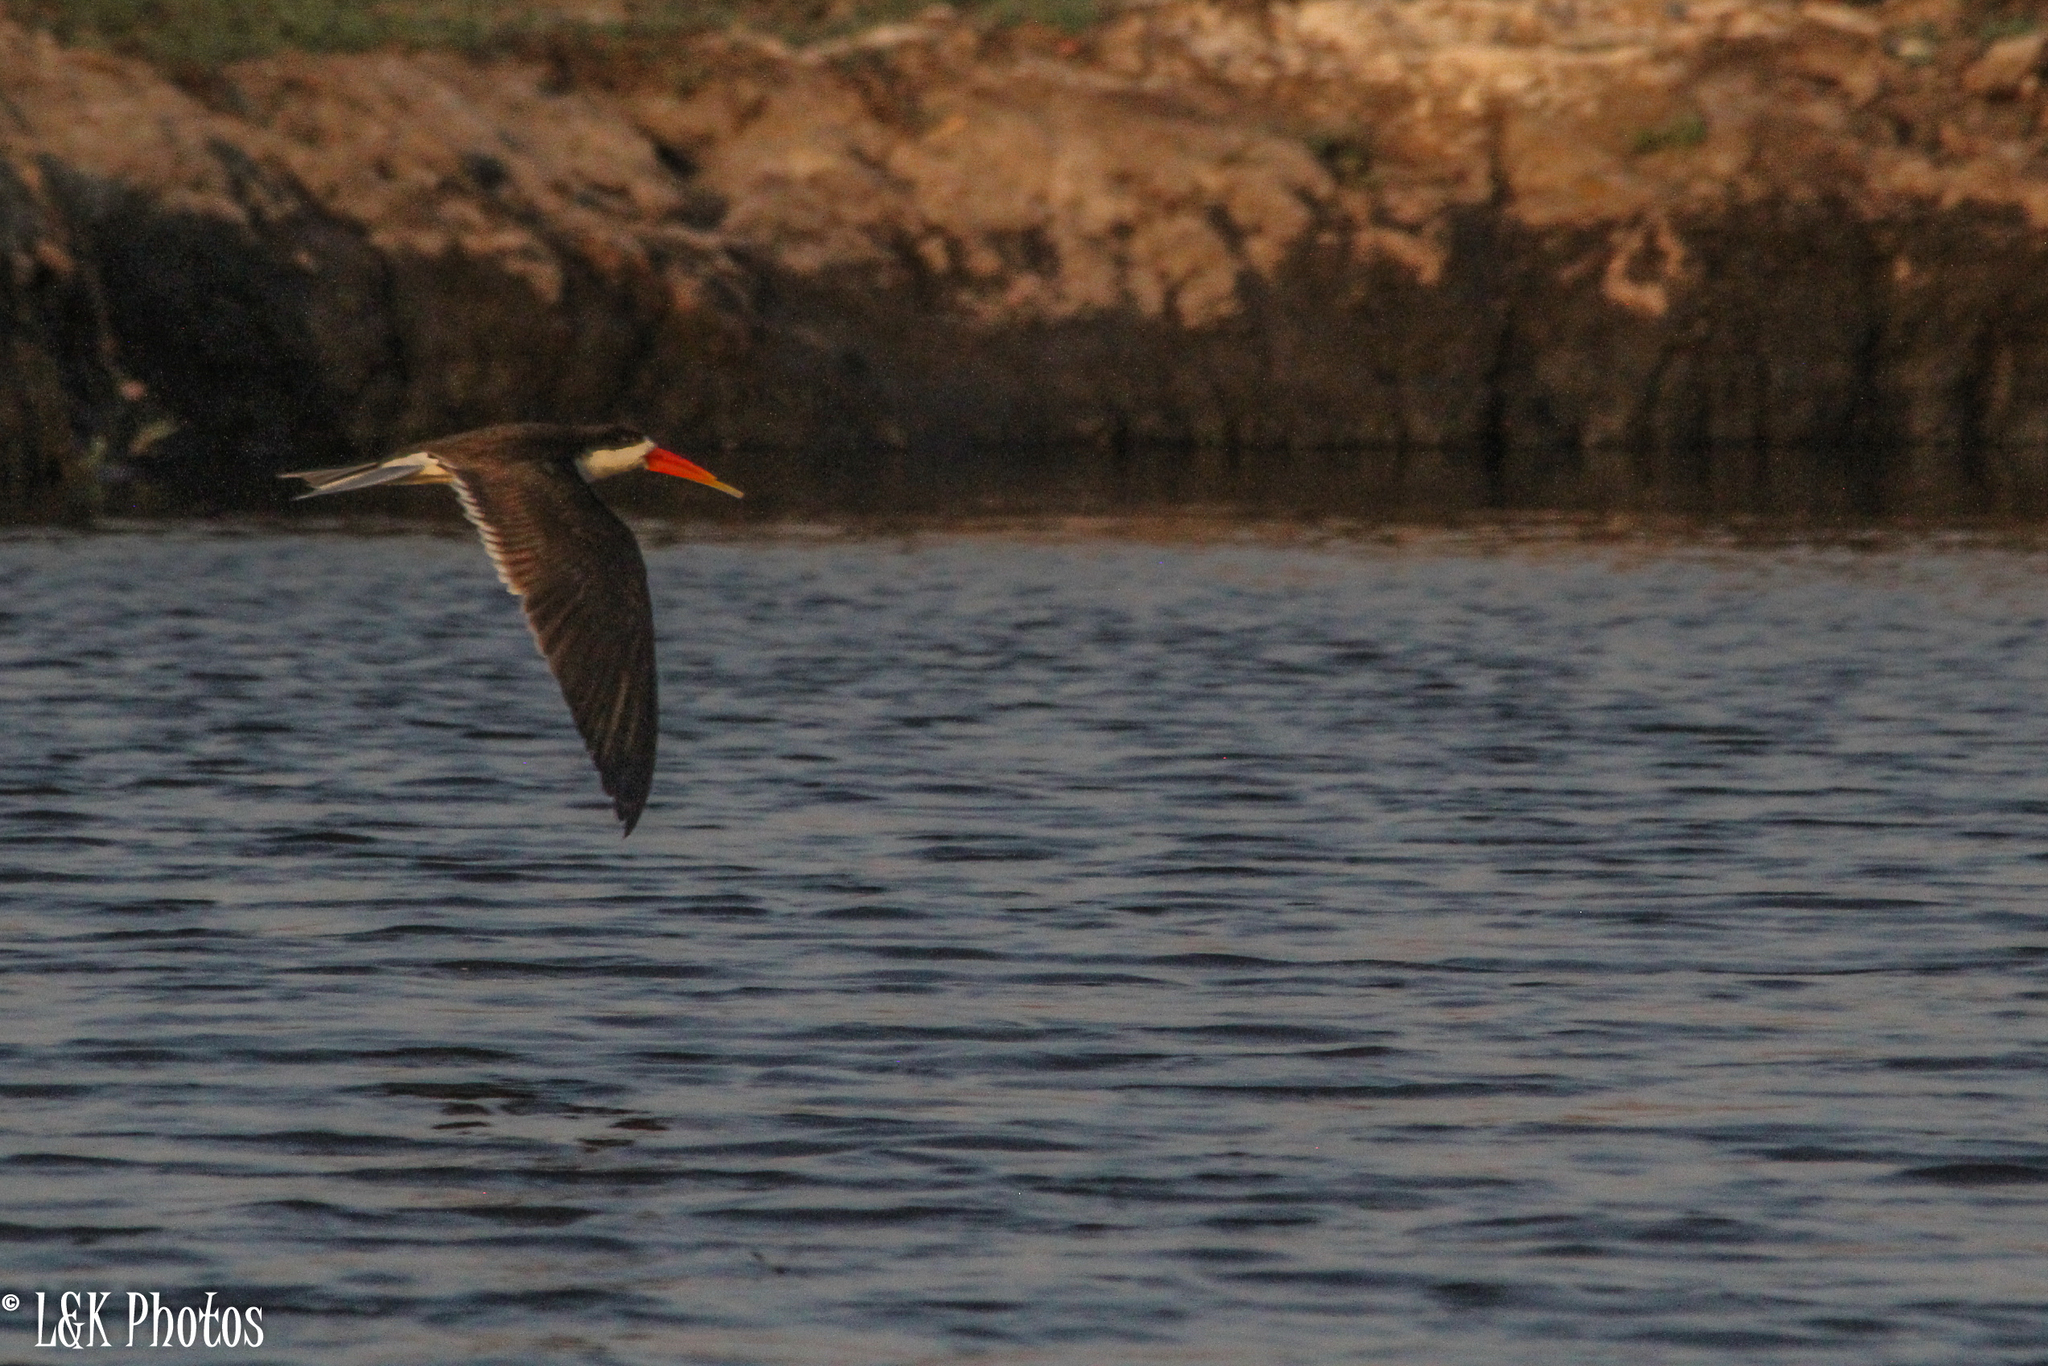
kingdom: Animalia
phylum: Chordata
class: Aves
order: Charadriiformes
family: Laridae
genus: Rynchops
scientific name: Rynchops flavirostris
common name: African skimmer
